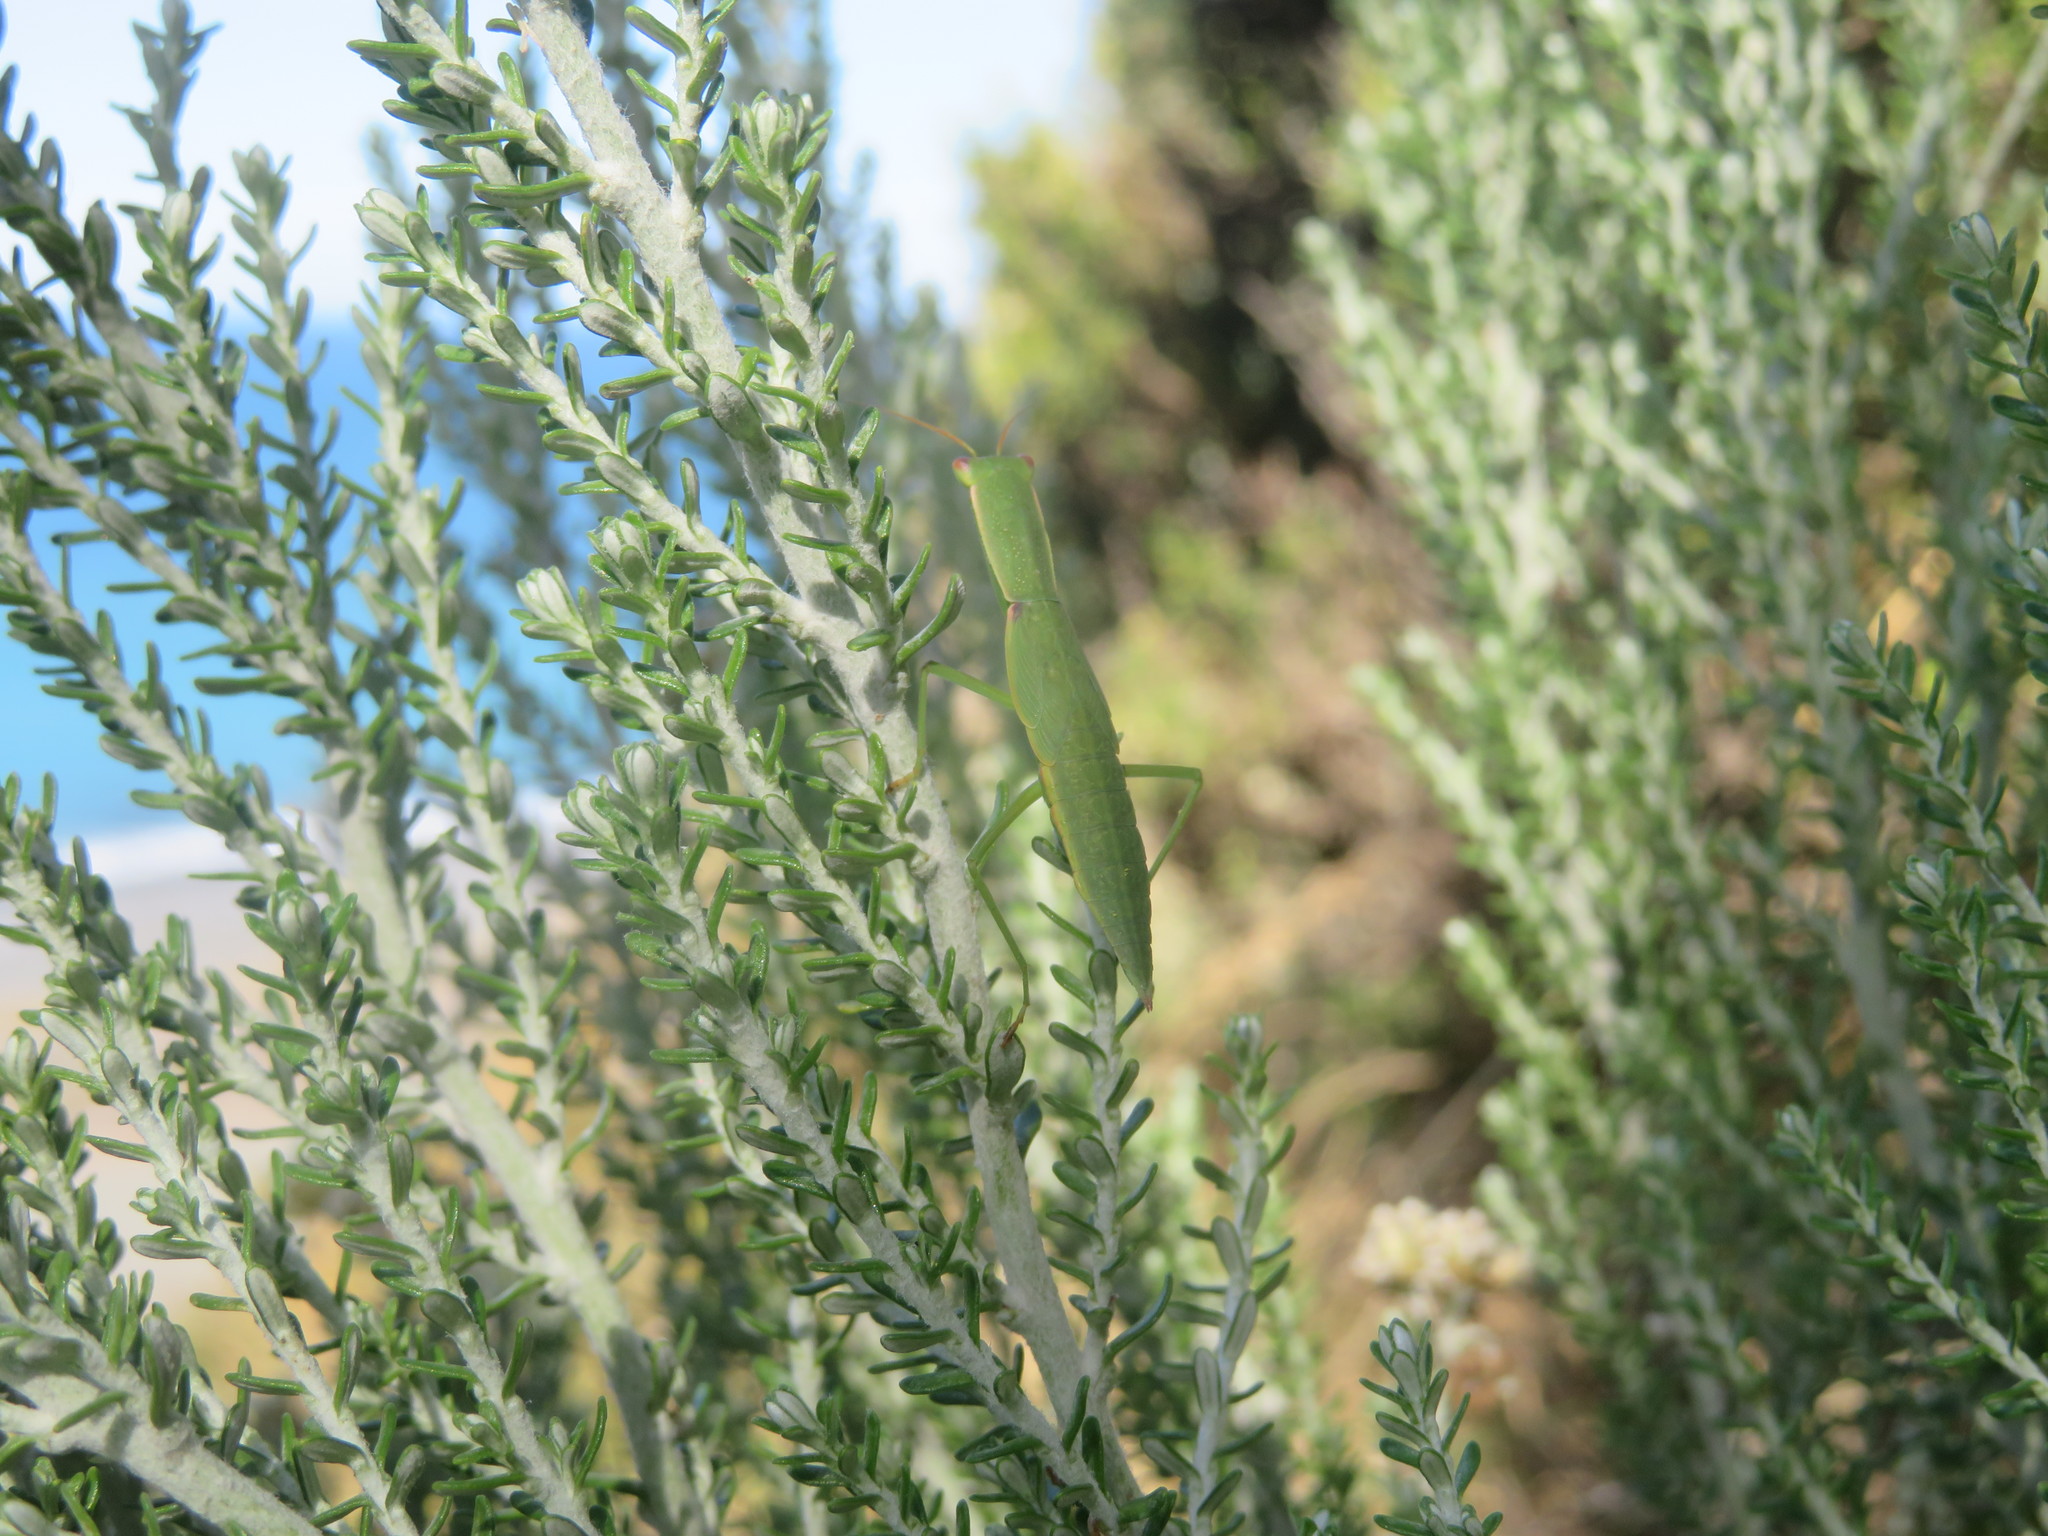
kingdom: Animalia
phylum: Arthropoda
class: Insecta
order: Mantodea
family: Mantidae
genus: Orthodera
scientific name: Orthodera novaezealandiae
